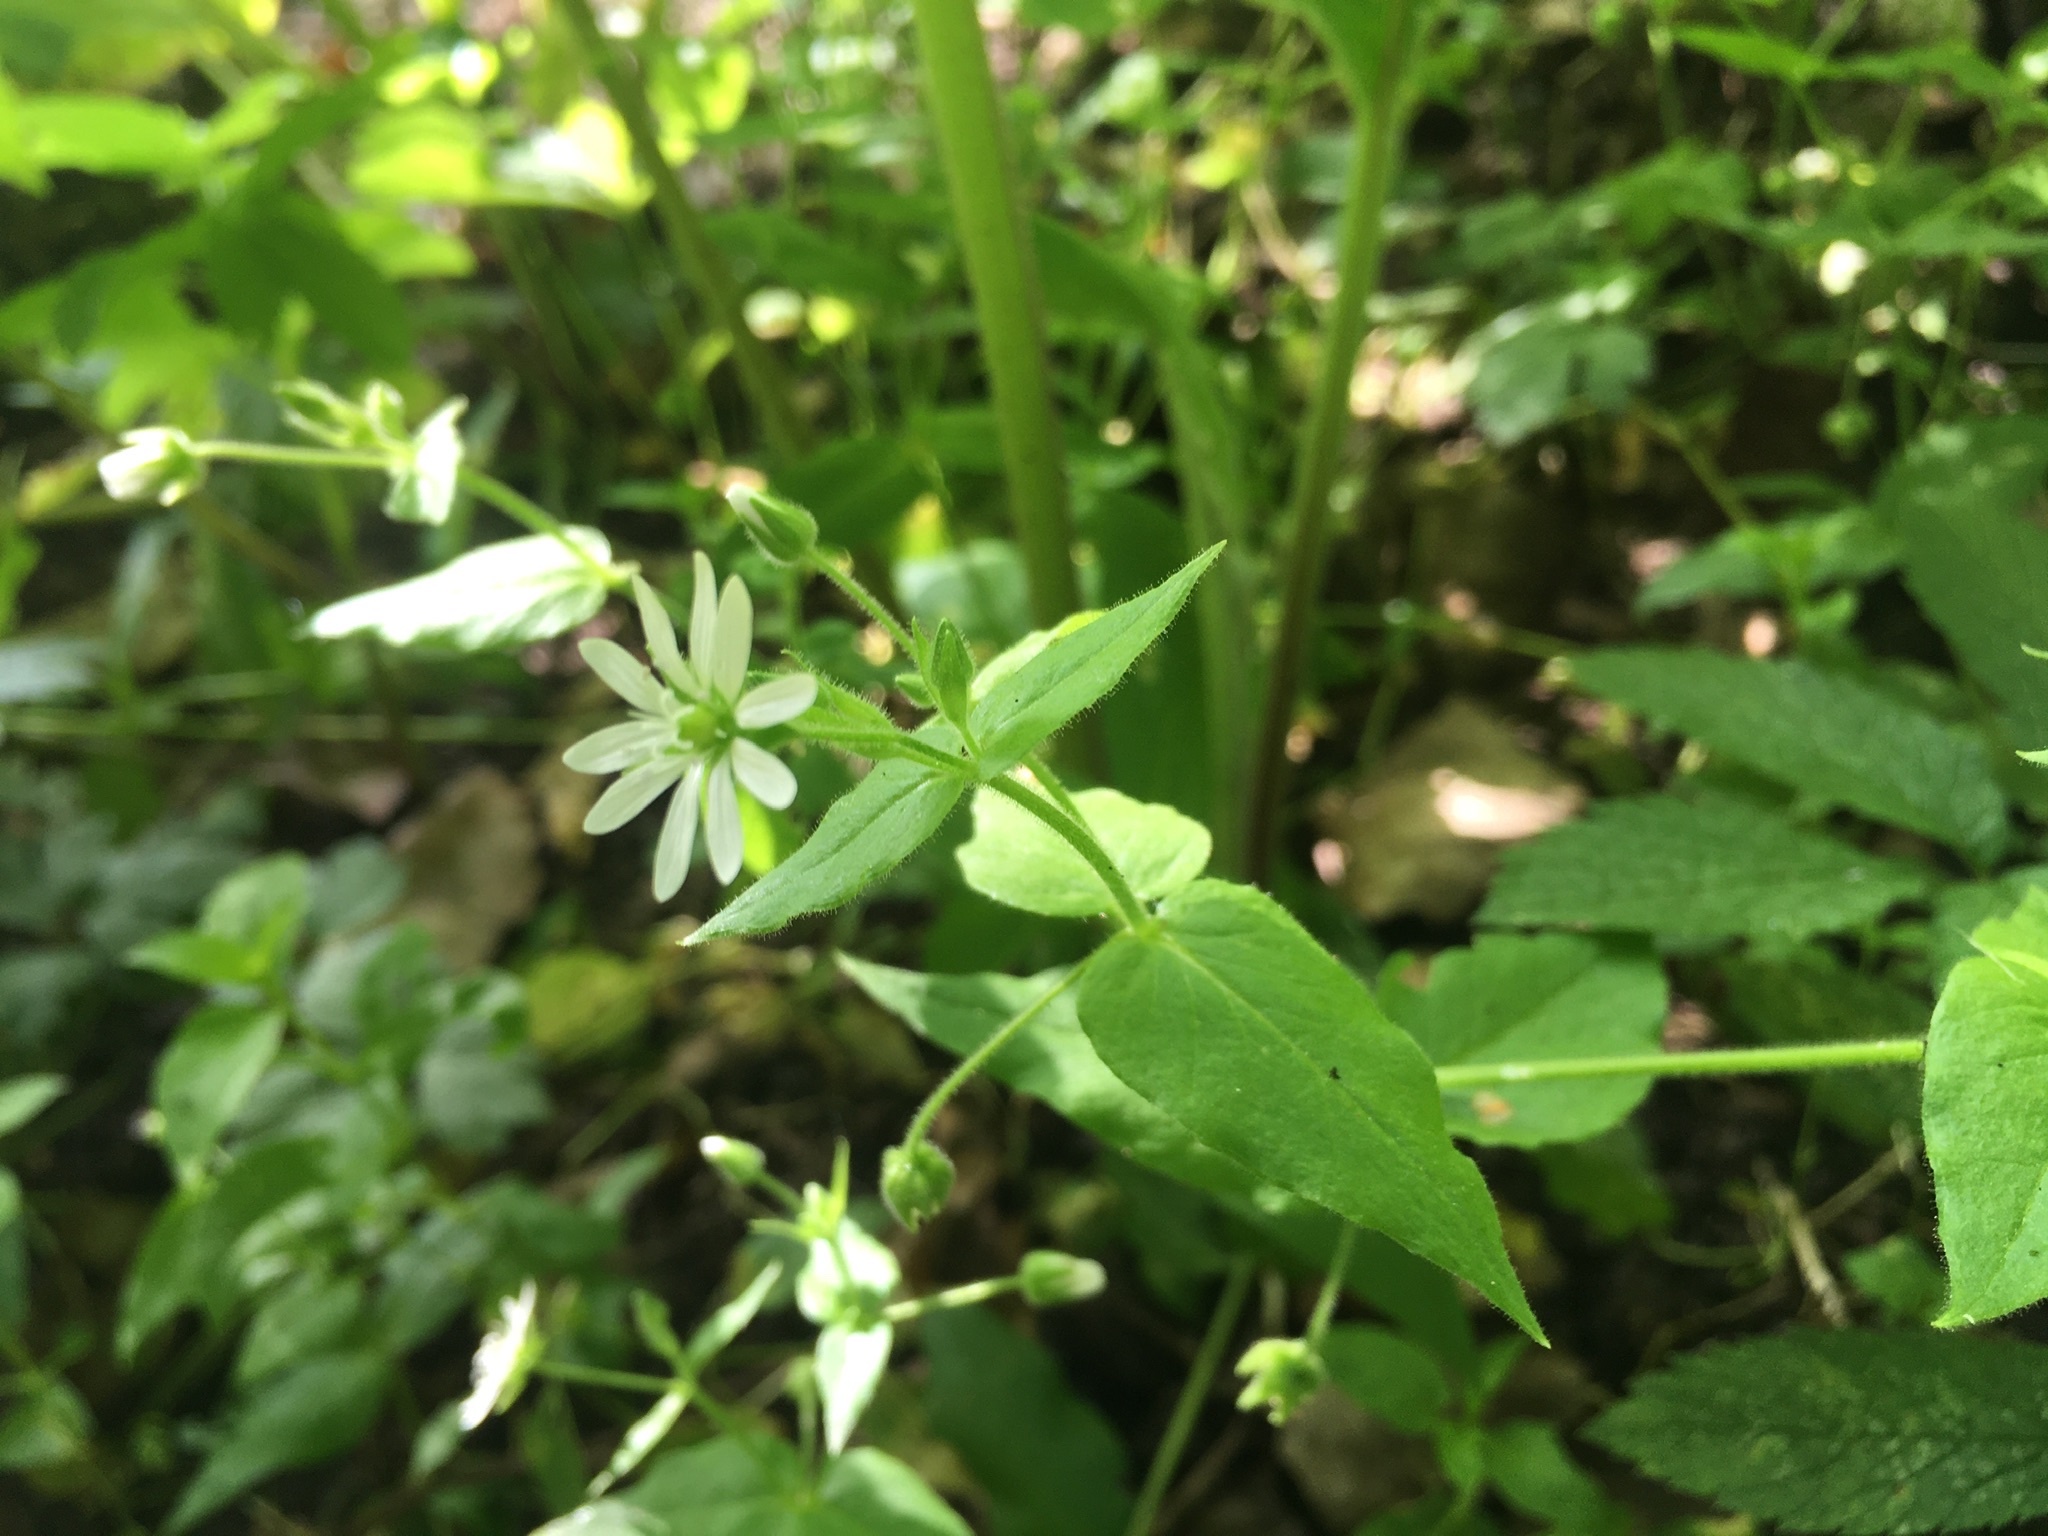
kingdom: Plantae
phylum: Tracheophyta
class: Magnoliopsida
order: Caryophyllales
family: Caryophyllaceae
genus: Stellaria
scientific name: Stellaria aquatica
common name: Water chickweed
